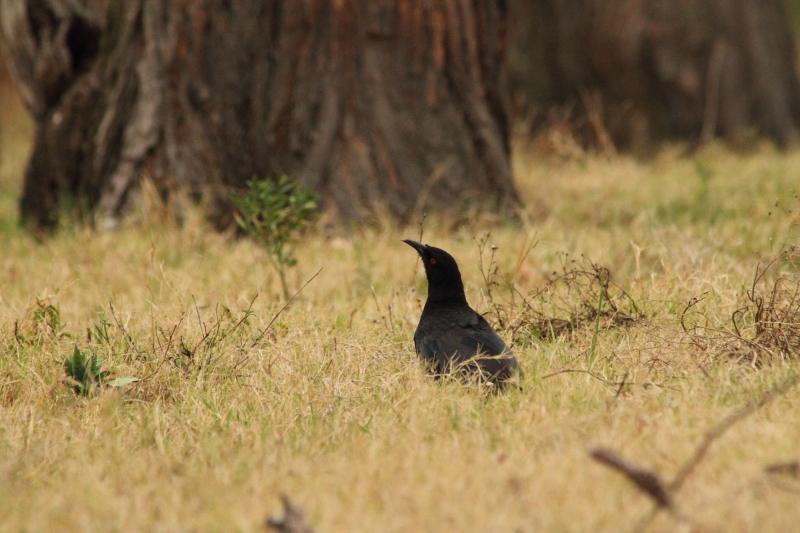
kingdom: Animalia
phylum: Chordata
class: Aves
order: Passeriformes
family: Corcoracidae
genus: Corcorax
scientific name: Corcorax melanoramphos
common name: White-winged chough
